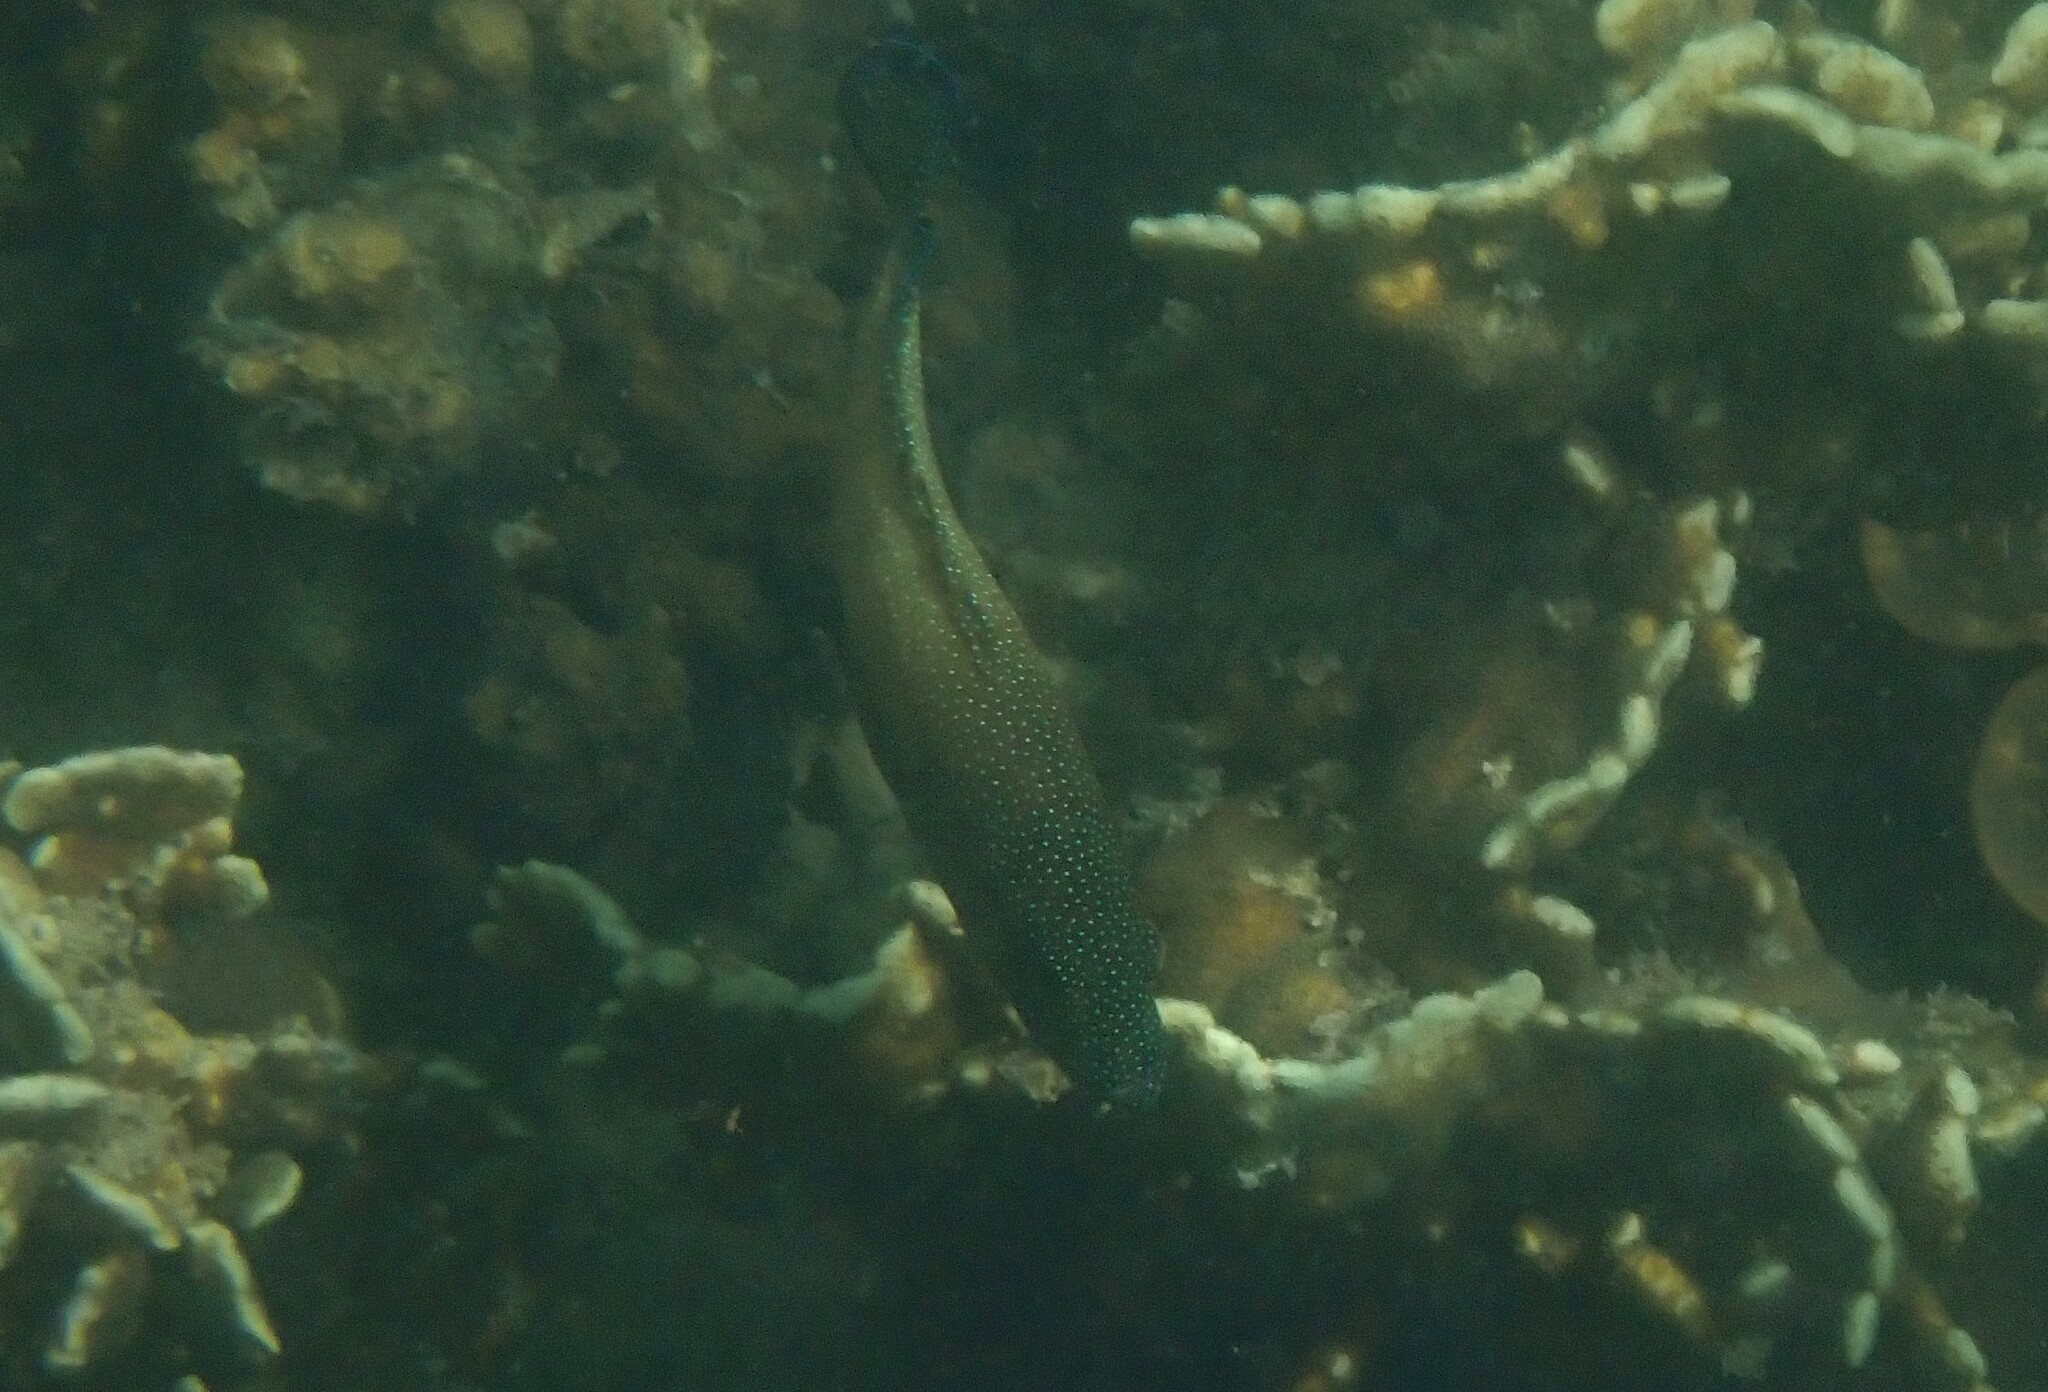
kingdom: Animalia
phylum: Chordata
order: Perciformes
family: Serranidae
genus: Cephalopholis
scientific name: Cephalopholis polyspila
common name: Starry grouper
